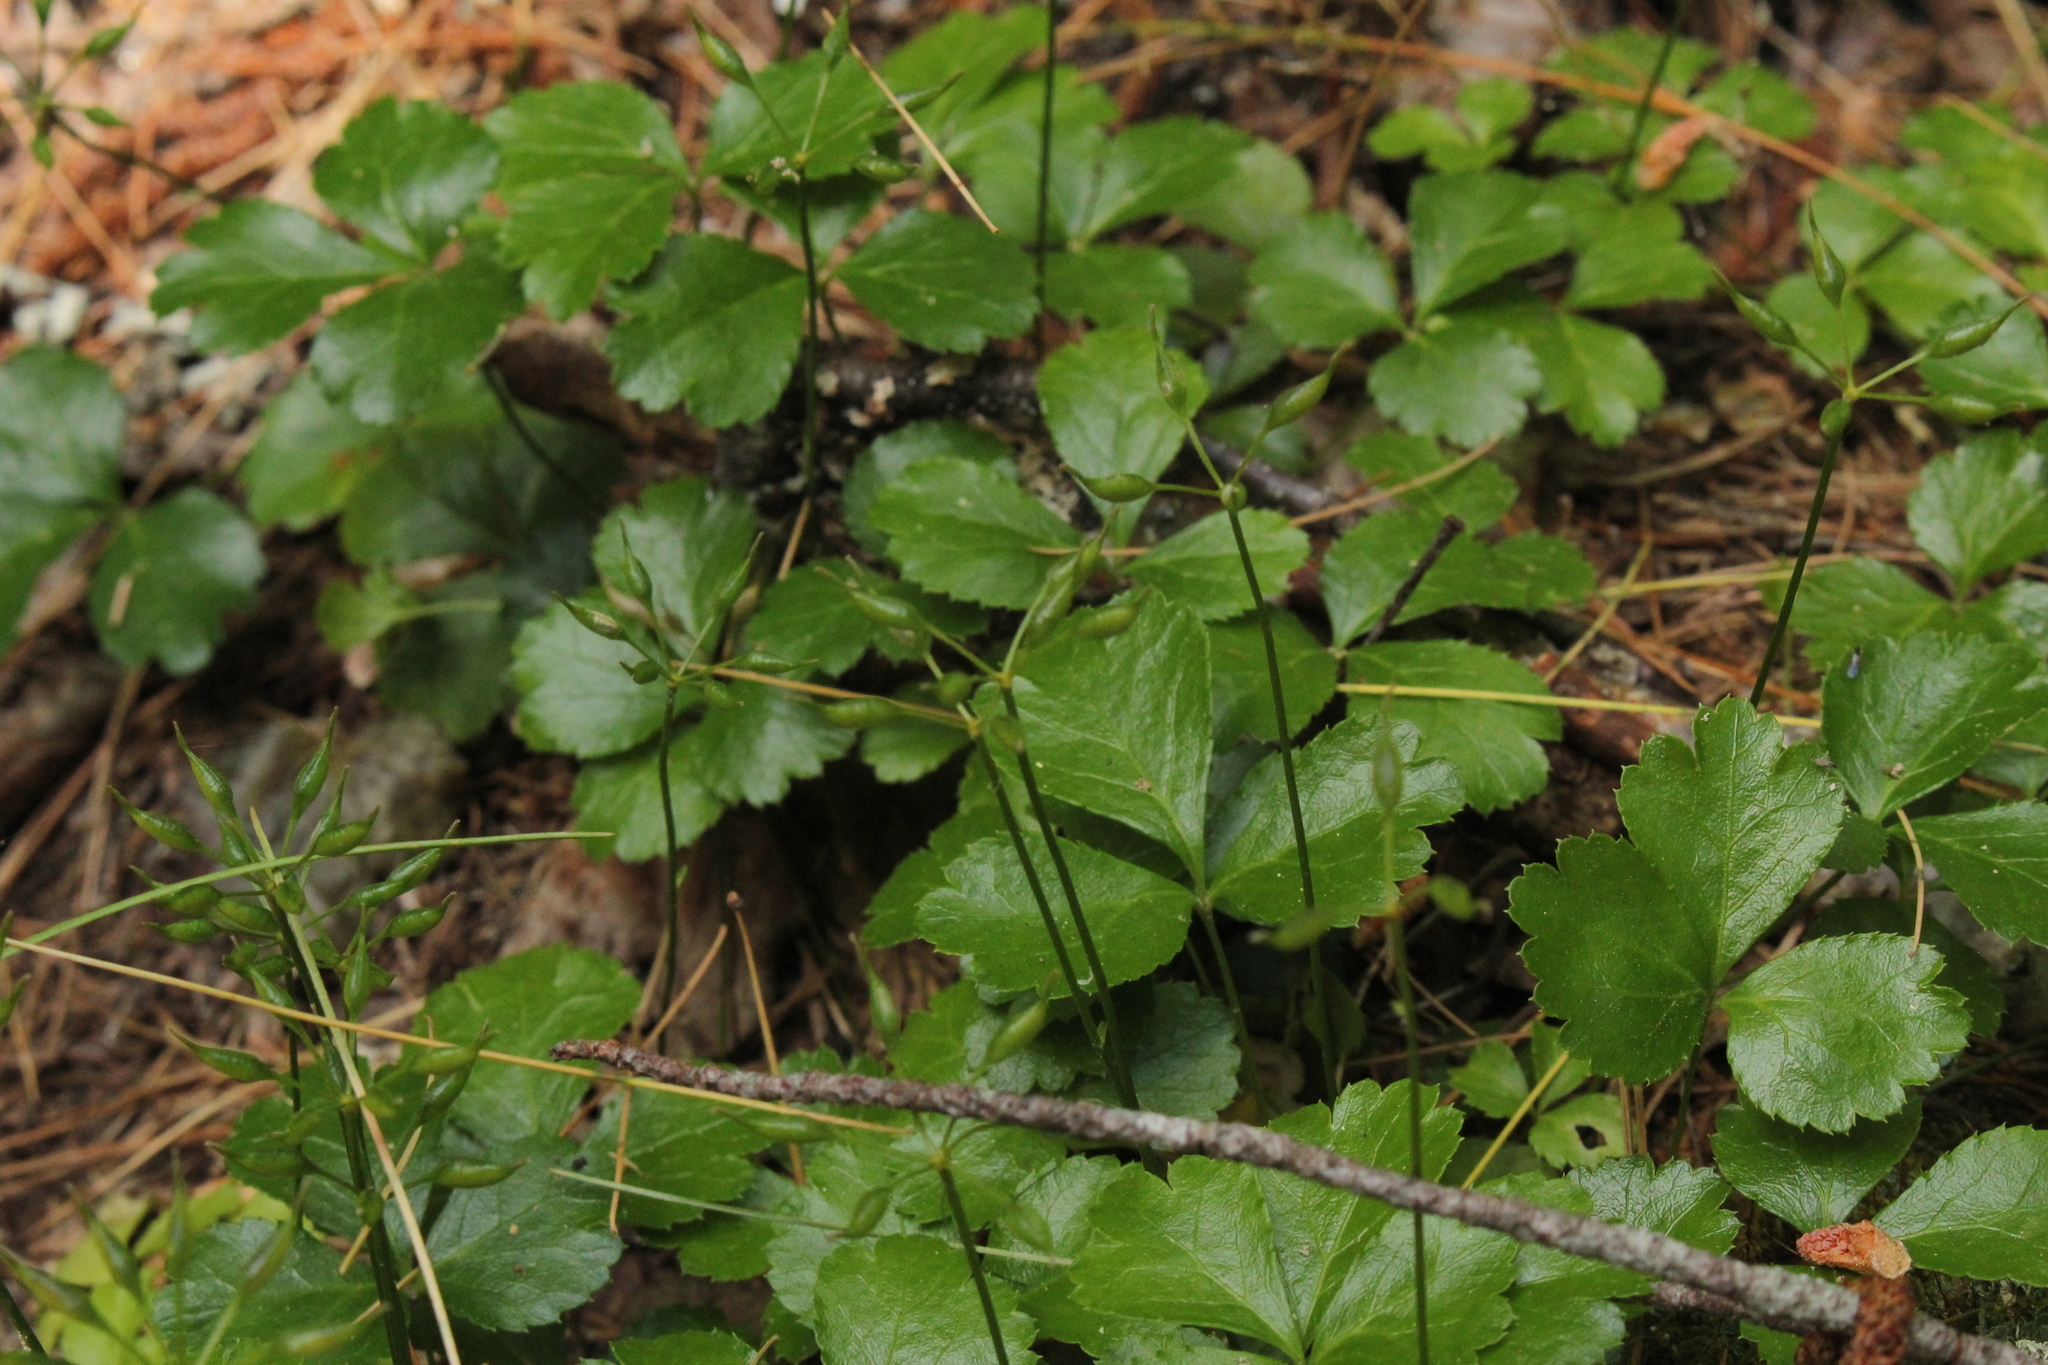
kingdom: Plantae
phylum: Tracheophyta
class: Magnoliopsida
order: Ranunculales
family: Ranunculaceae
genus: Coptis
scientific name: Coptis trifolia
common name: Canker-root
